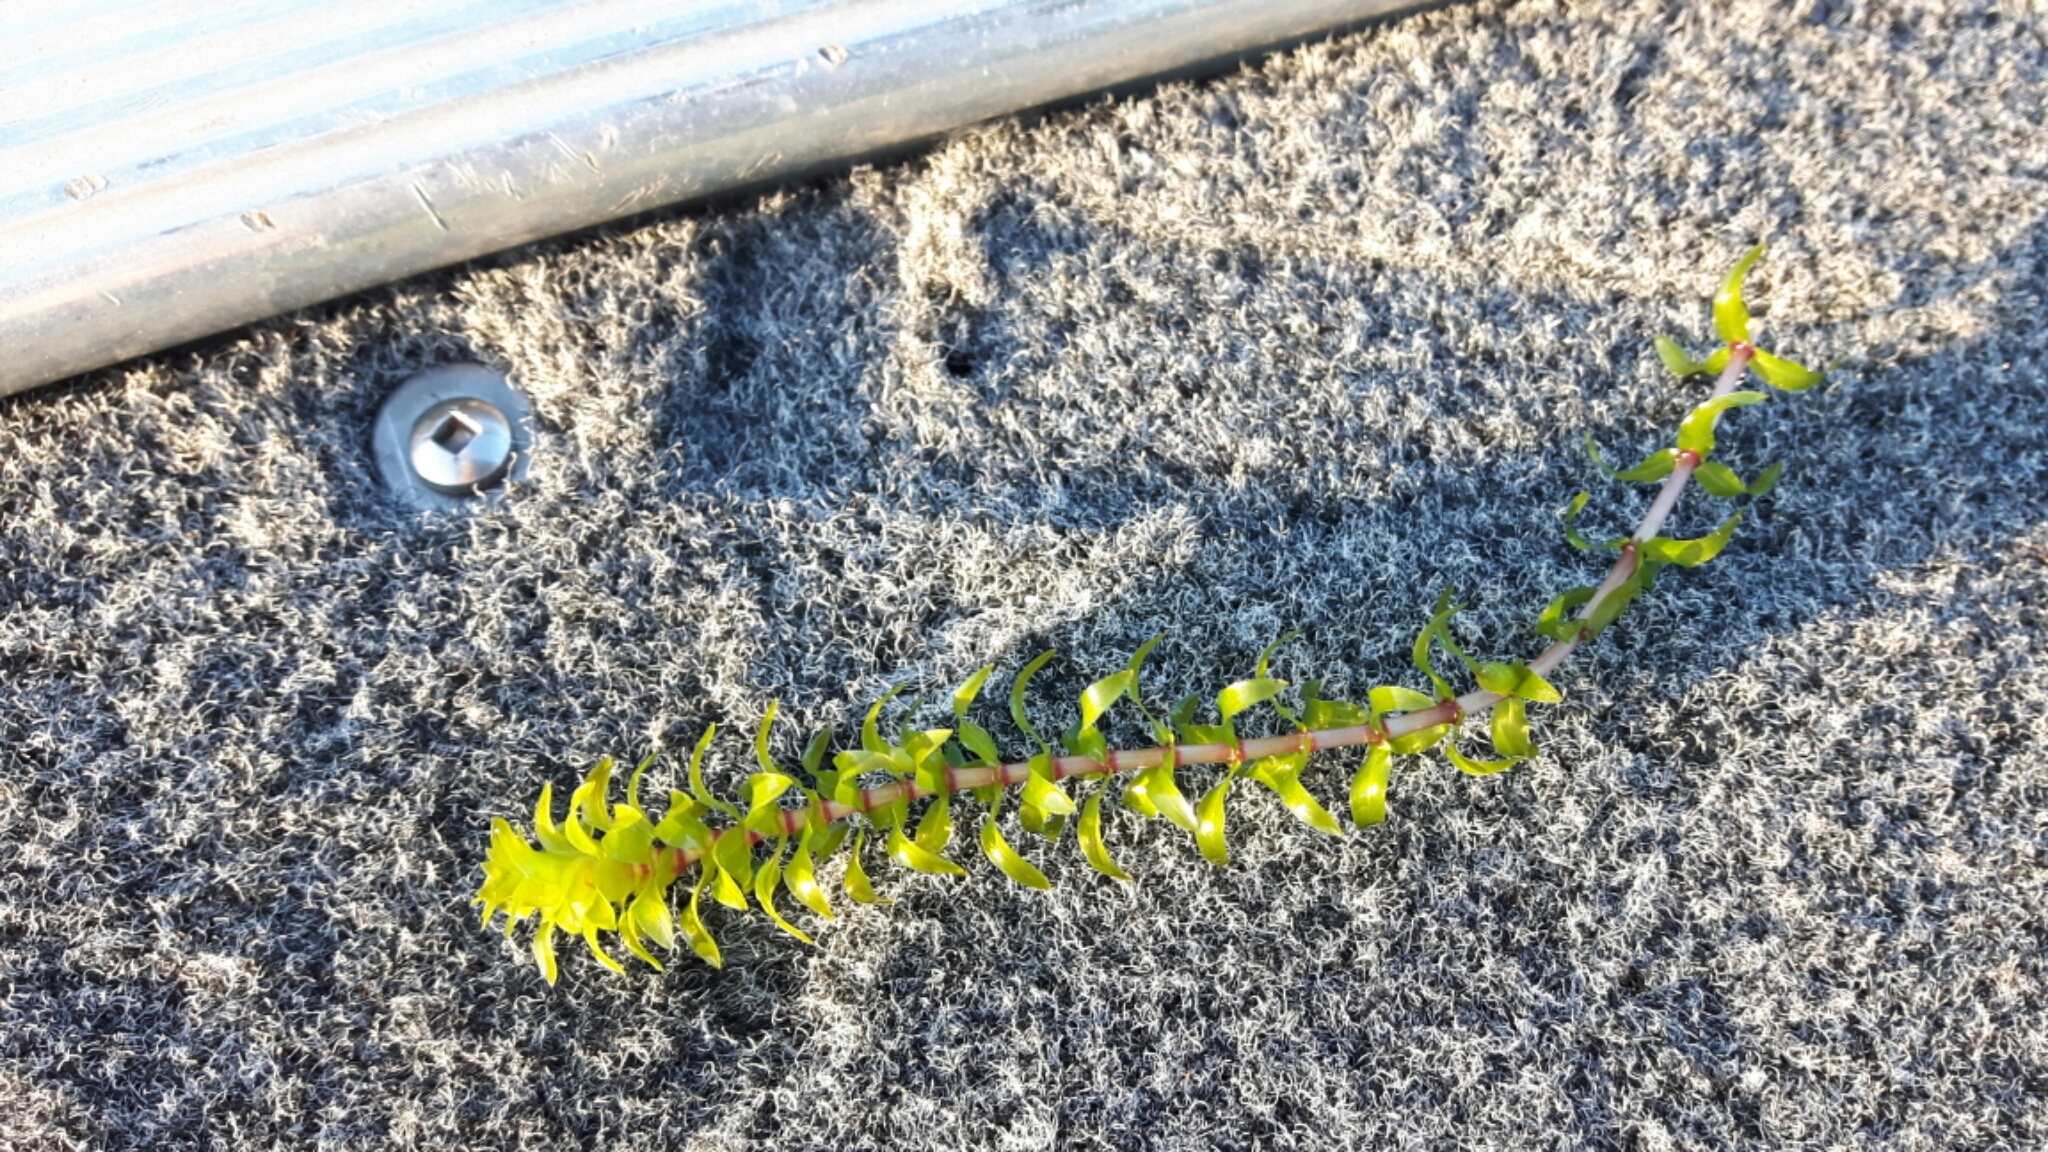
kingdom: Plantae
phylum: Tracheophyta
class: Liliopsida
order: Alismatales
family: Hydrocharitaceae
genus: Elodea
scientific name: Elodea canadensis
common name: Canadian waterweed
